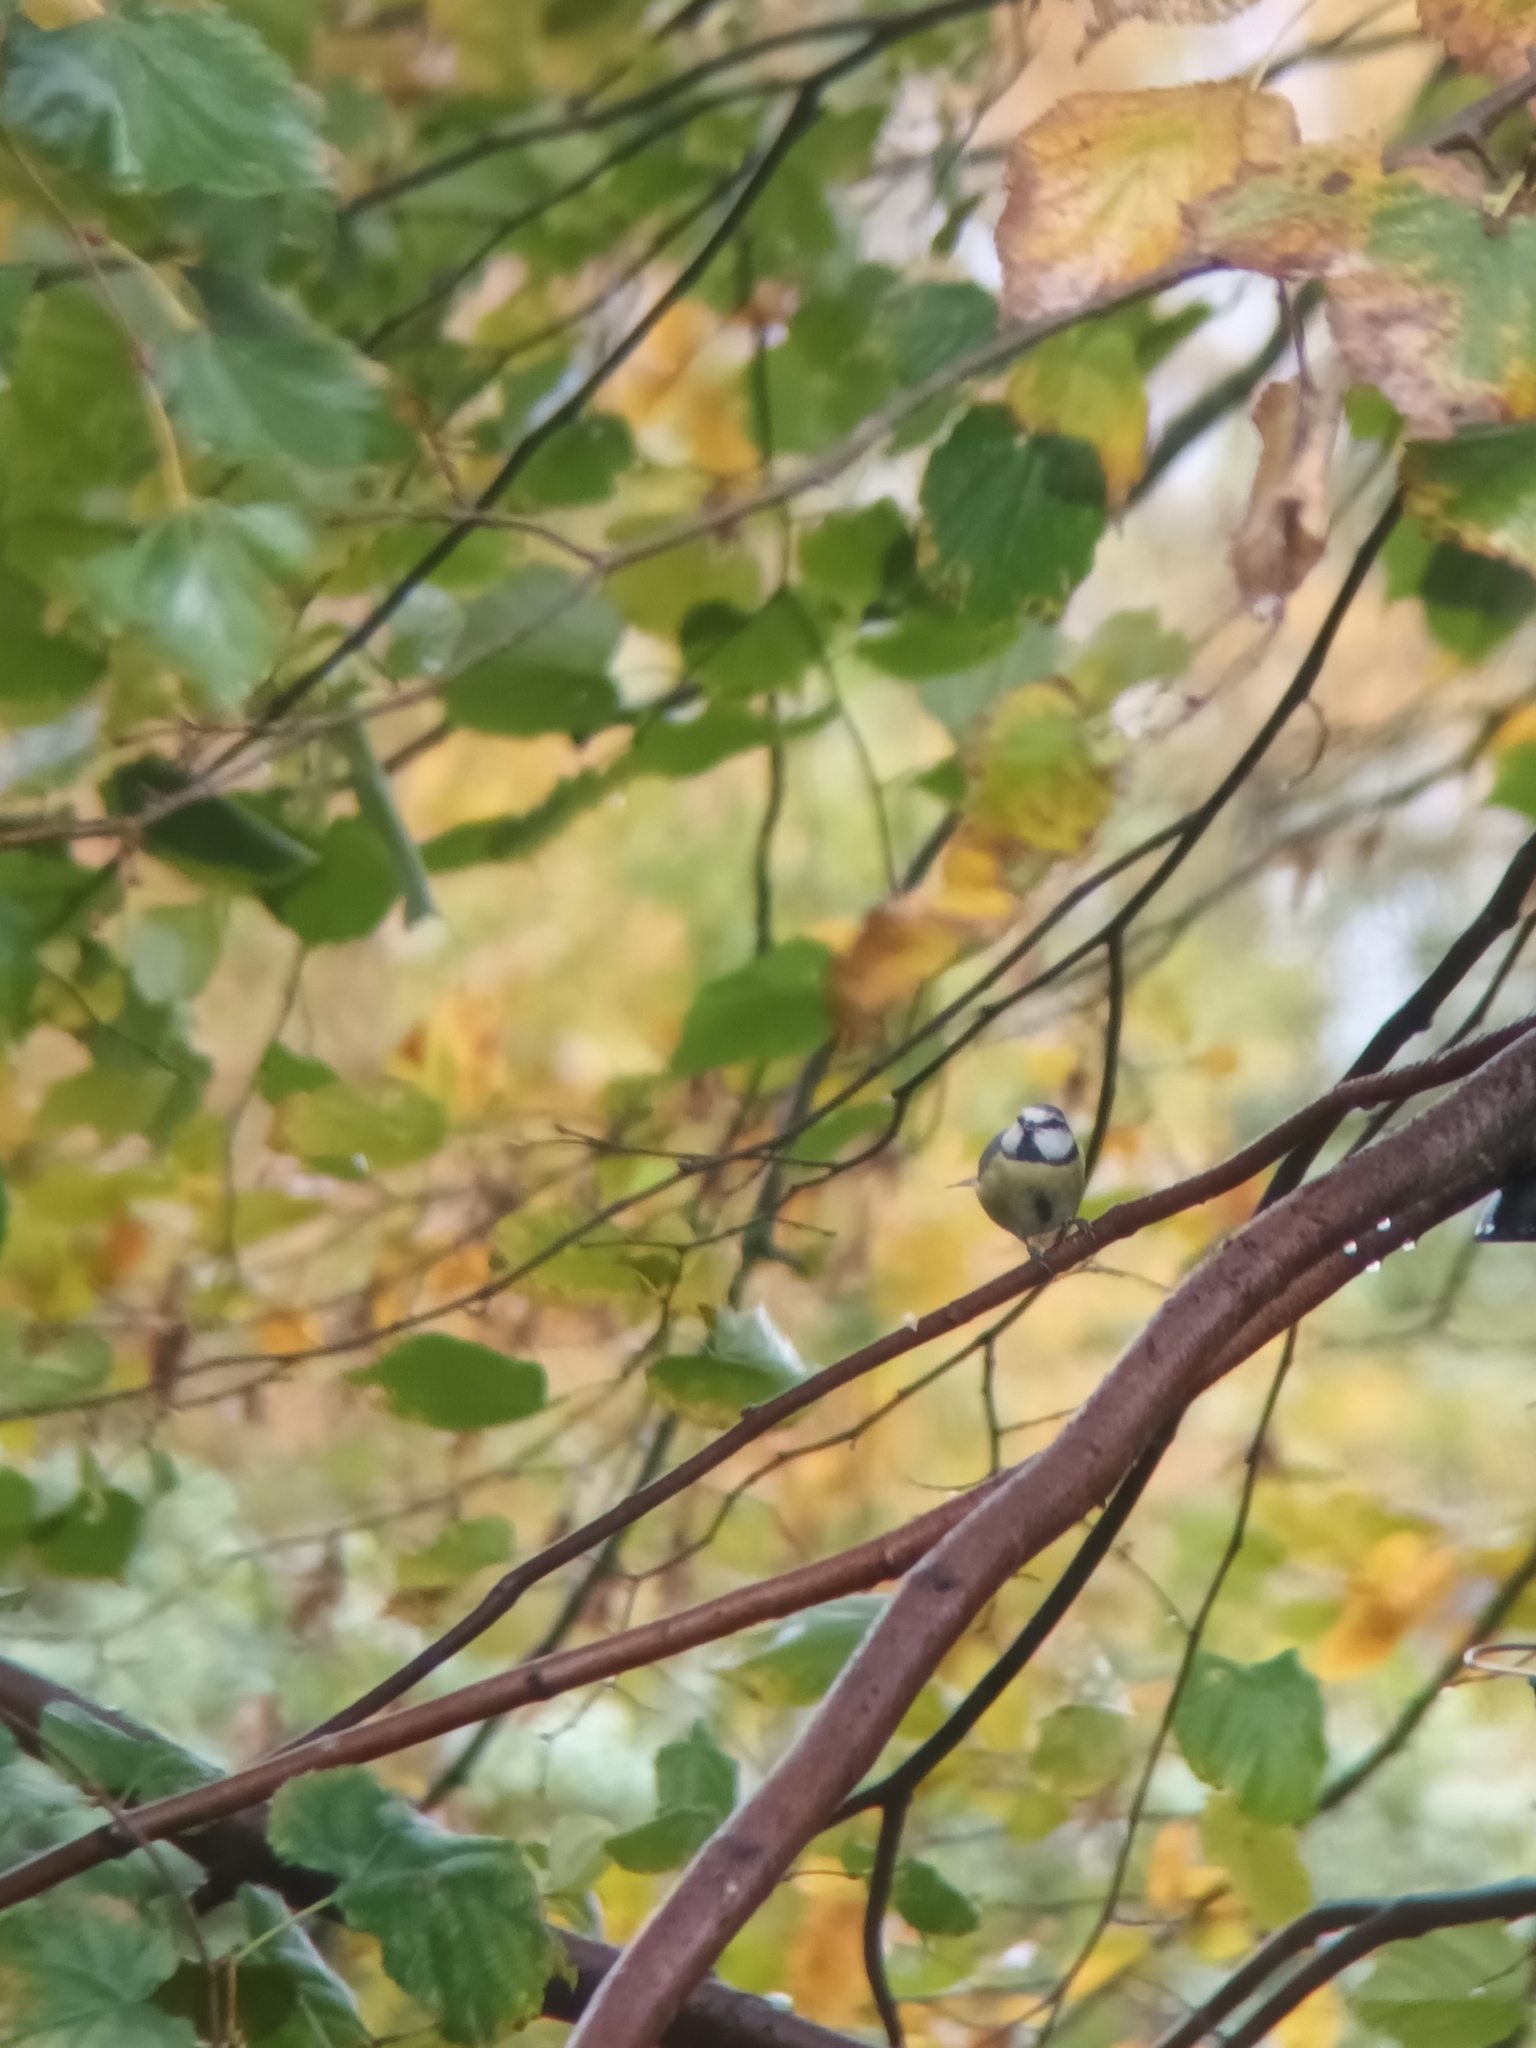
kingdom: Animalia
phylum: Chordata
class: Aves
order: Passeriformes
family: Paridae
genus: Cyanistes
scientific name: Cyanistes caeruleus
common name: Eurasian blue tit
